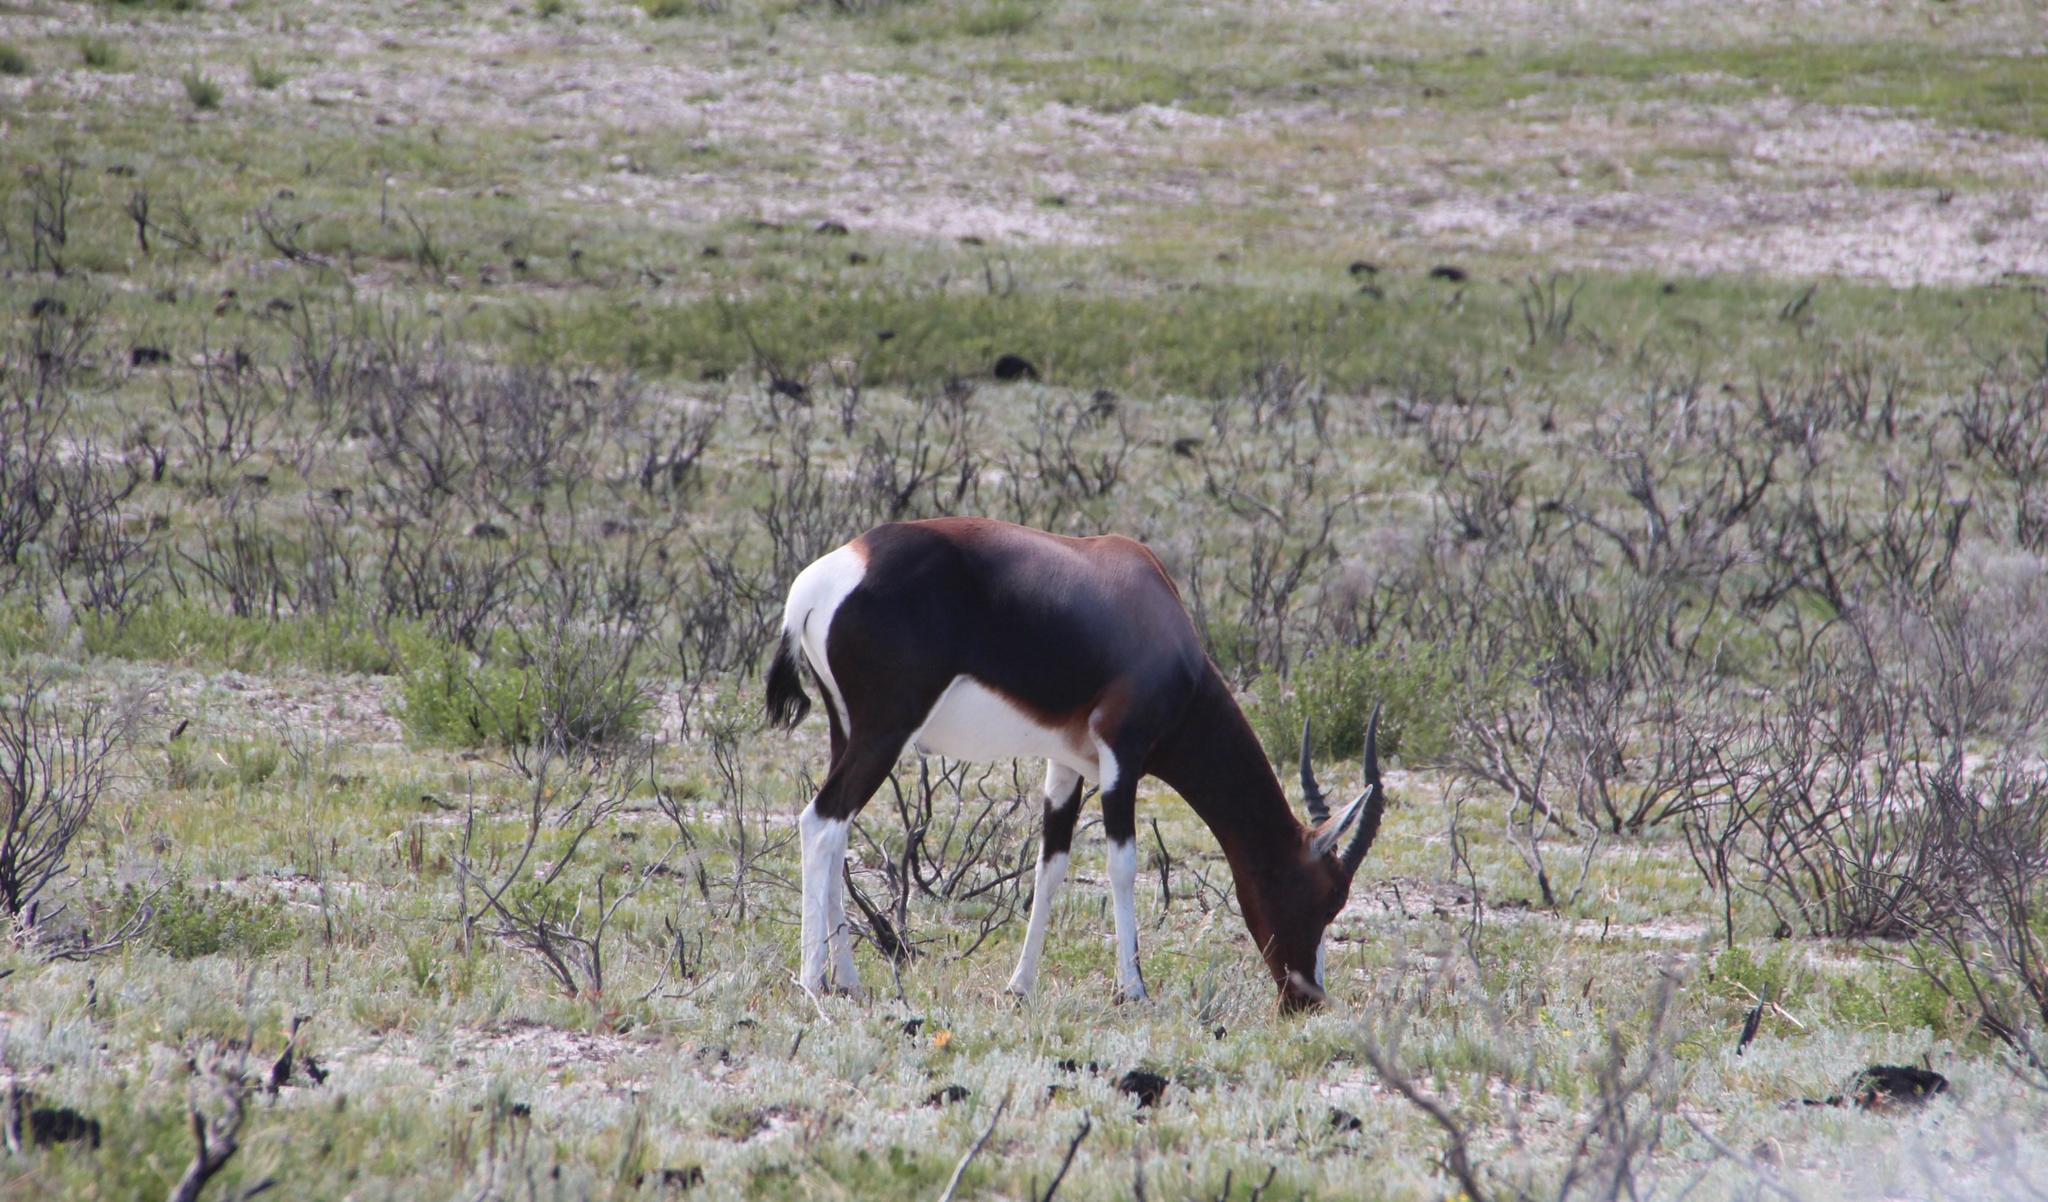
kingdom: Animalia
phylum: Chordata
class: Mammalia
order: Artiodactyla
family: Bovidae
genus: Damaliscus
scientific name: Damaliscus pygargus
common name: Bontebok
